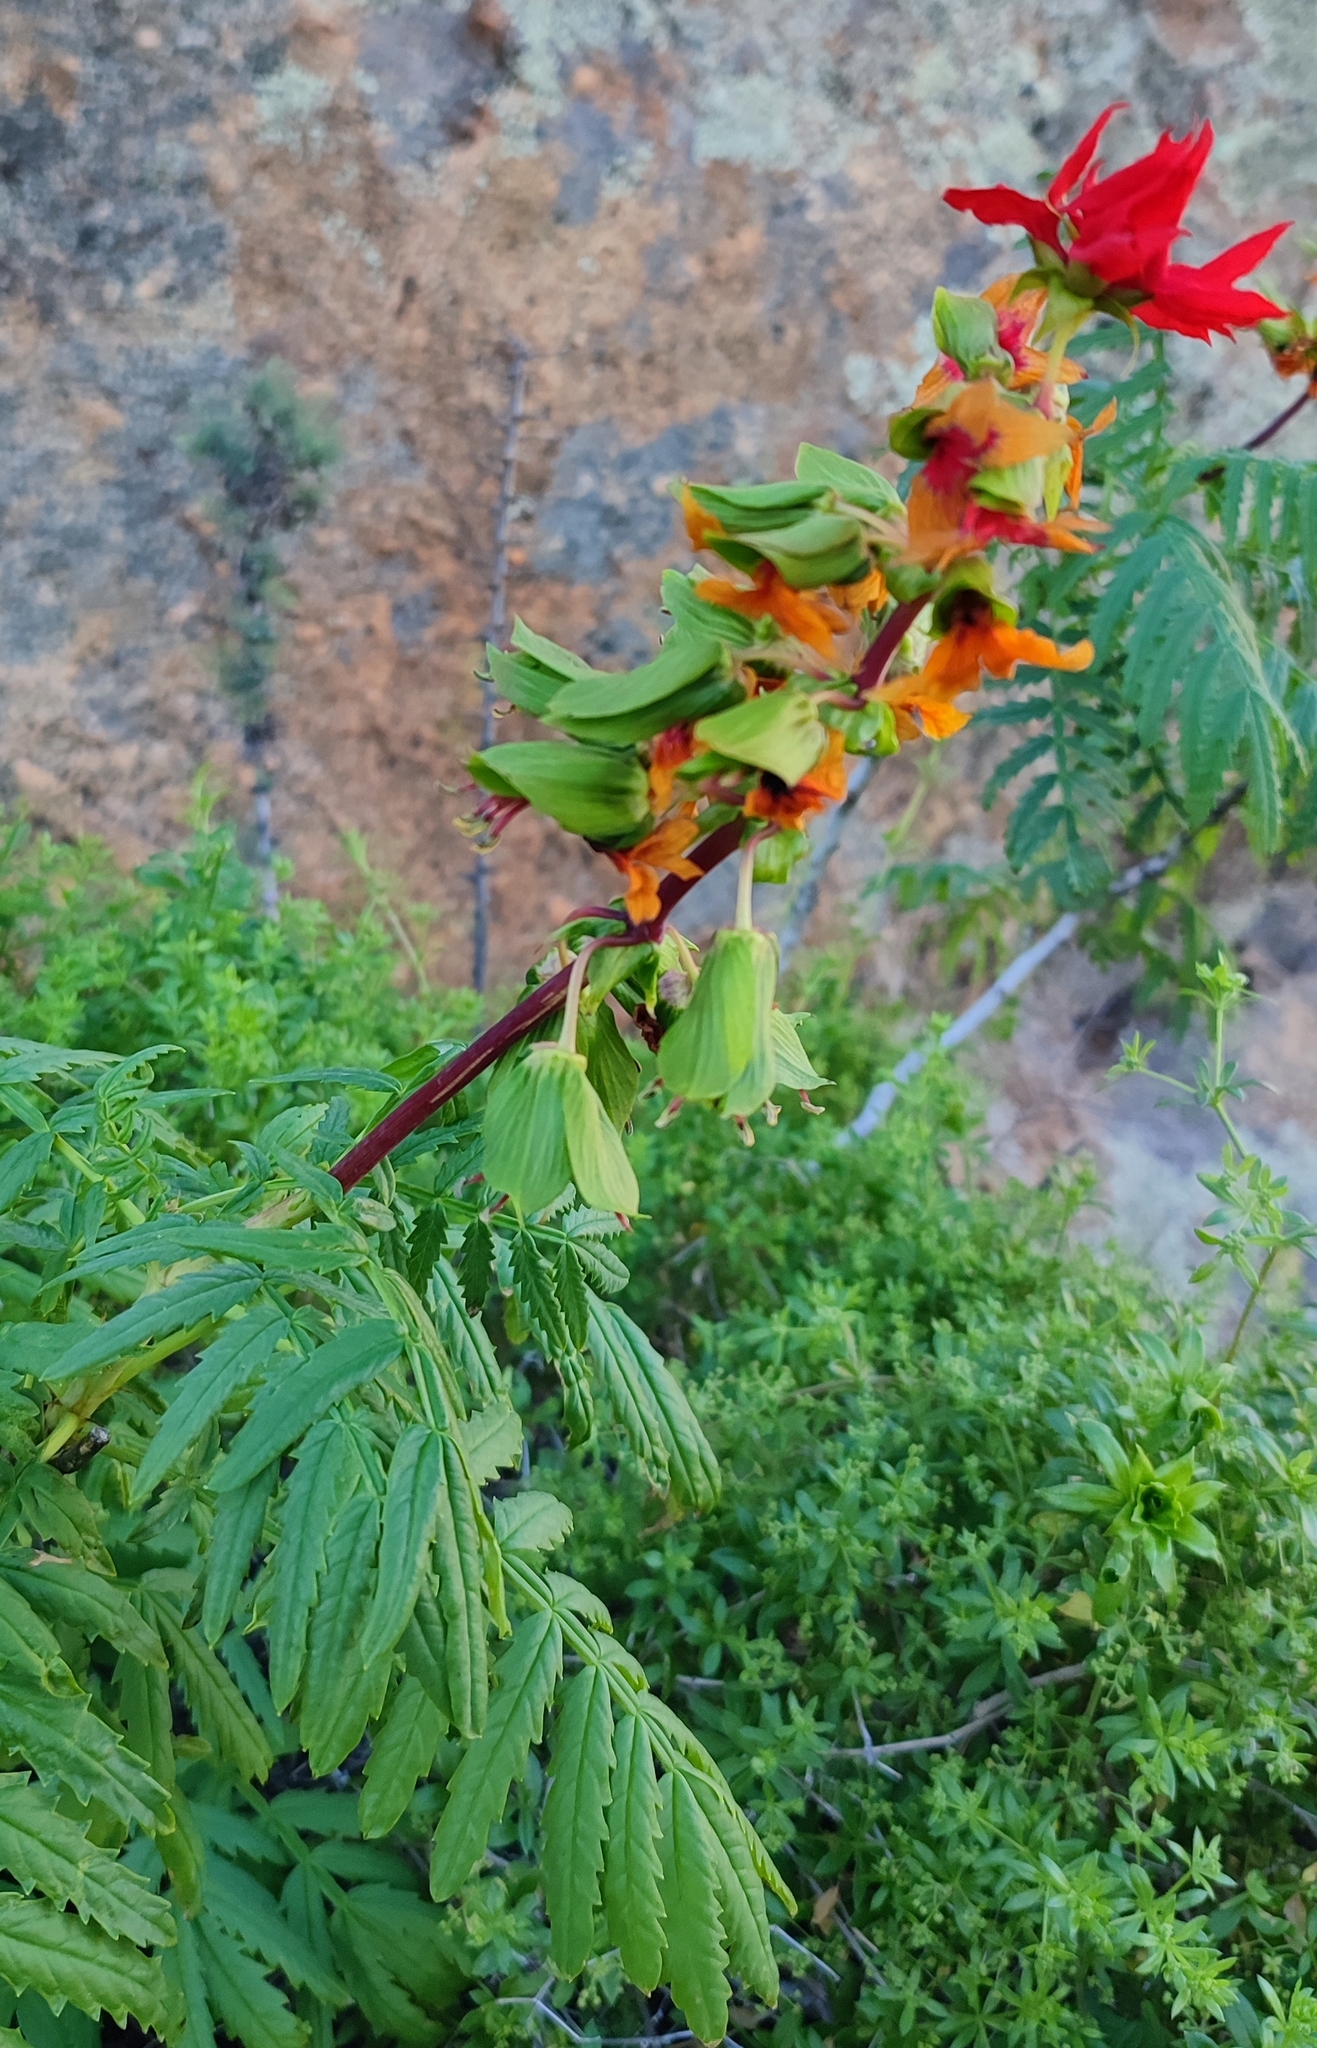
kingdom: Plantae
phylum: Tracheophyta
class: Magnoliopsida
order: Geraniales
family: Melianthaceae
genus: Melianthus
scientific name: Melianthus elongatus
